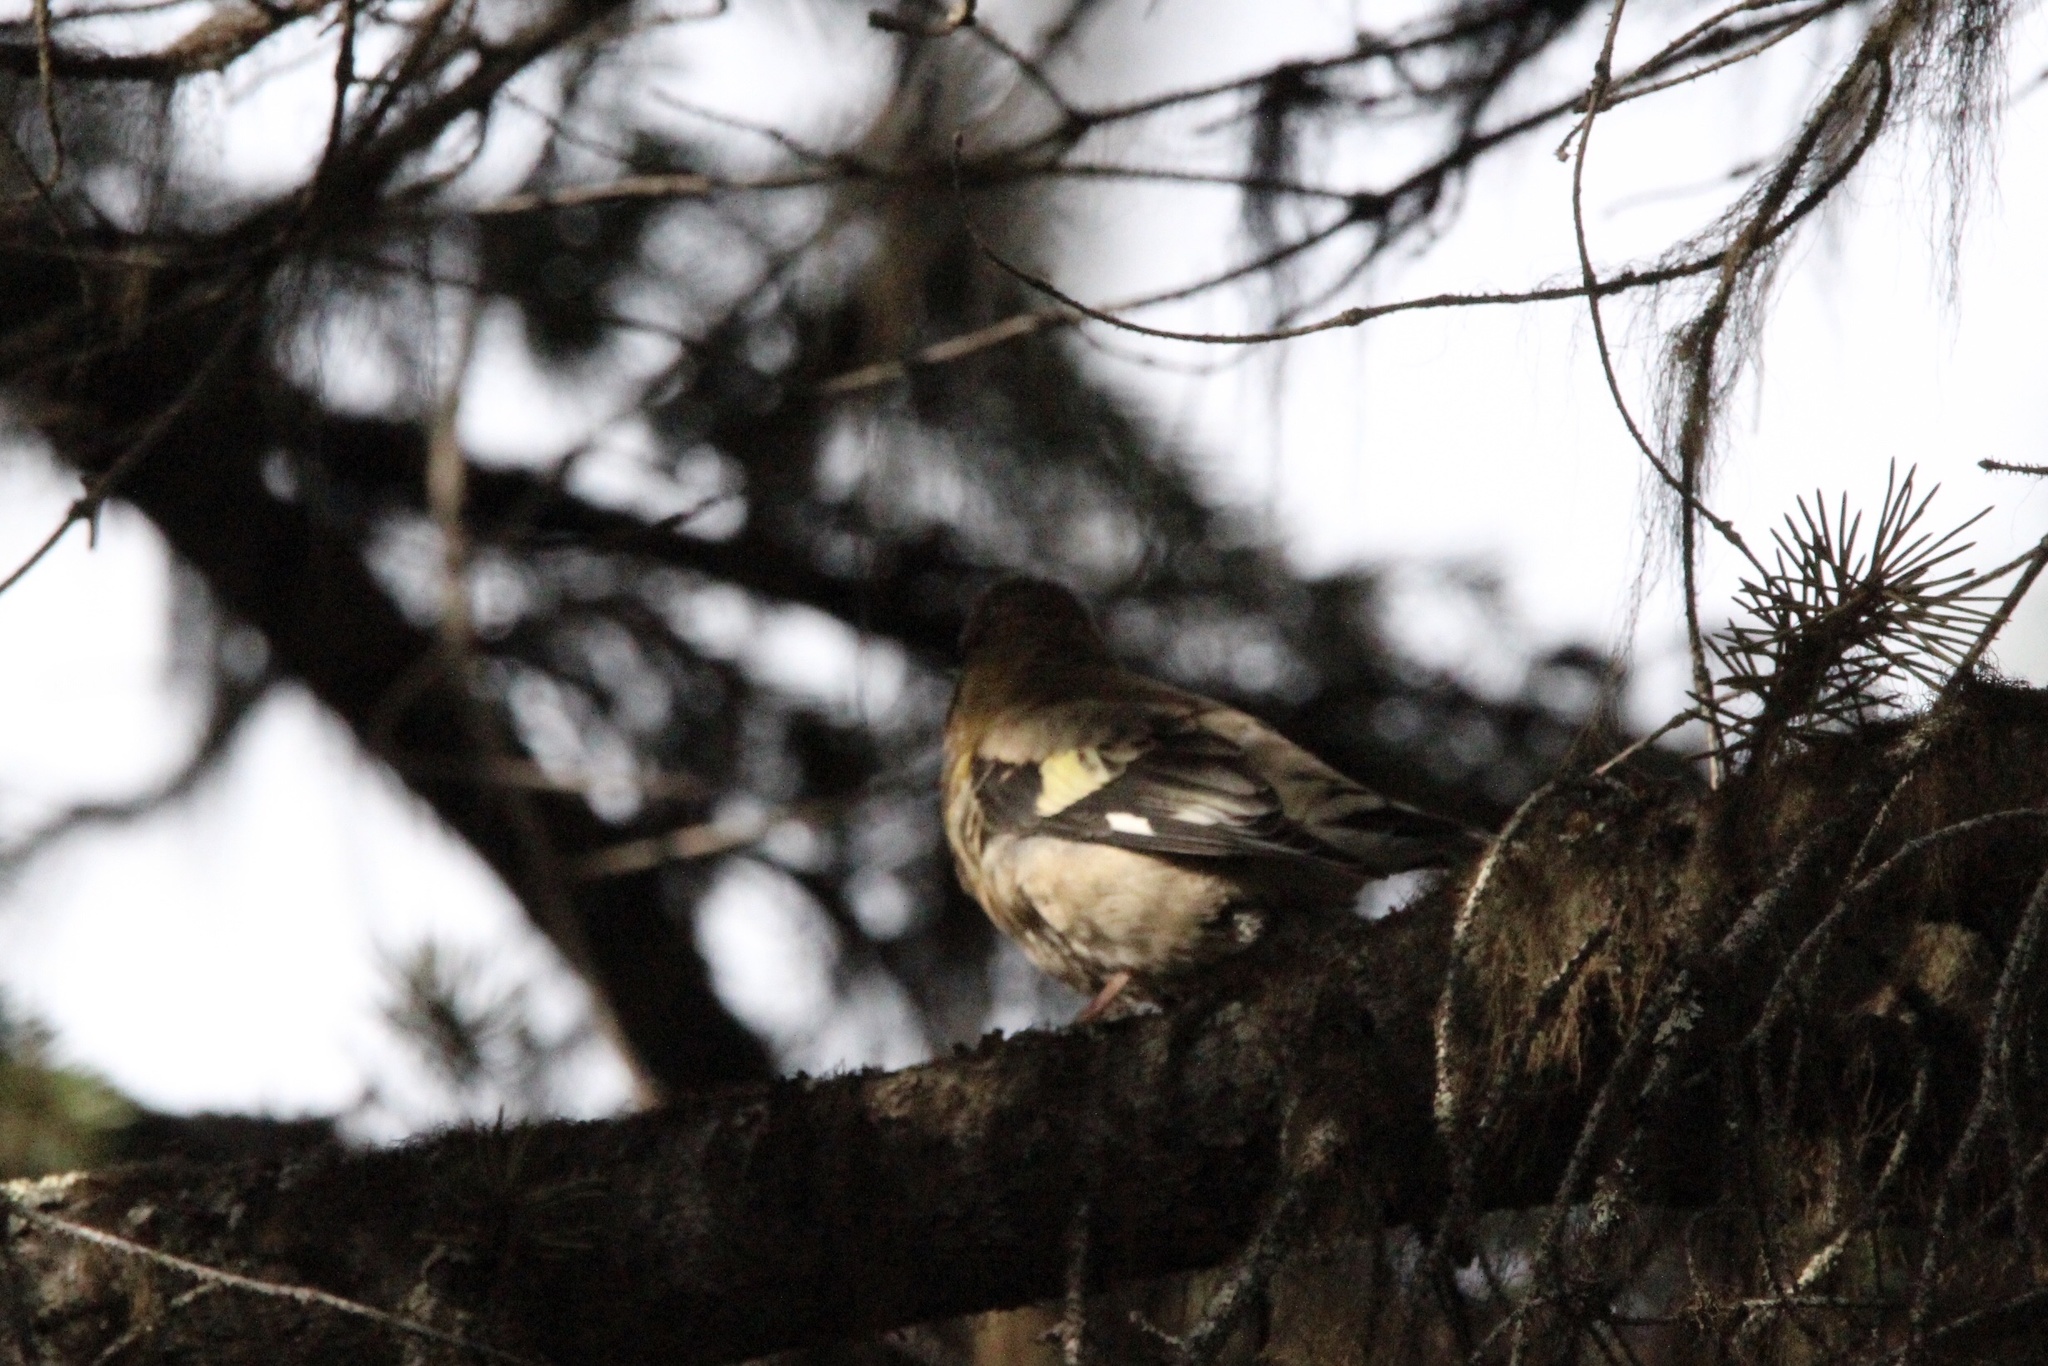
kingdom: Animalia
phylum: Chordata
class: Aves
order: Passeriformes
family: Fringillidae
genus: Hesperiphona
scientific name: Hesperiphona vespertina
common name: Evening grosbeak
